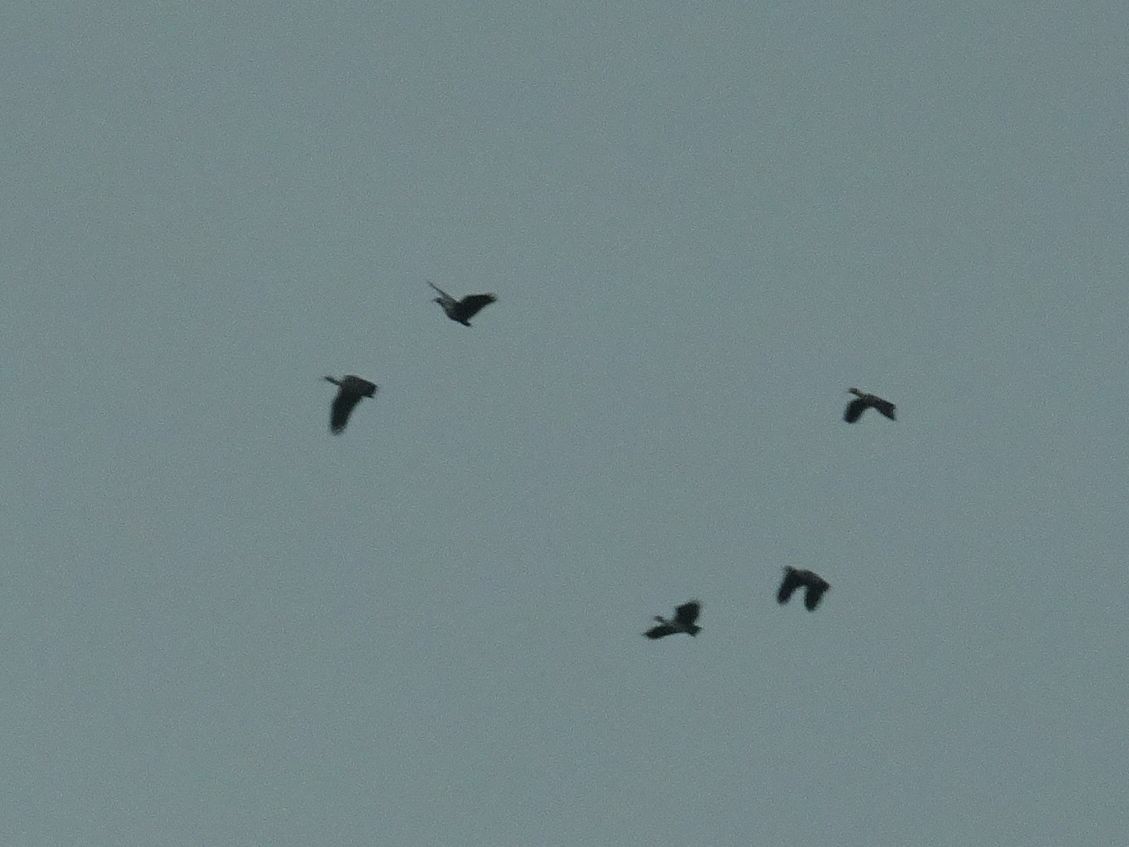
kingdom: Animalia
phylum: Chordata
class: Aves
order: Pelecaniformes
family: Threskiornithidae
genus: Bostrychia
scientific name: Bostrychia hagedash
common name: Hadada ibis
